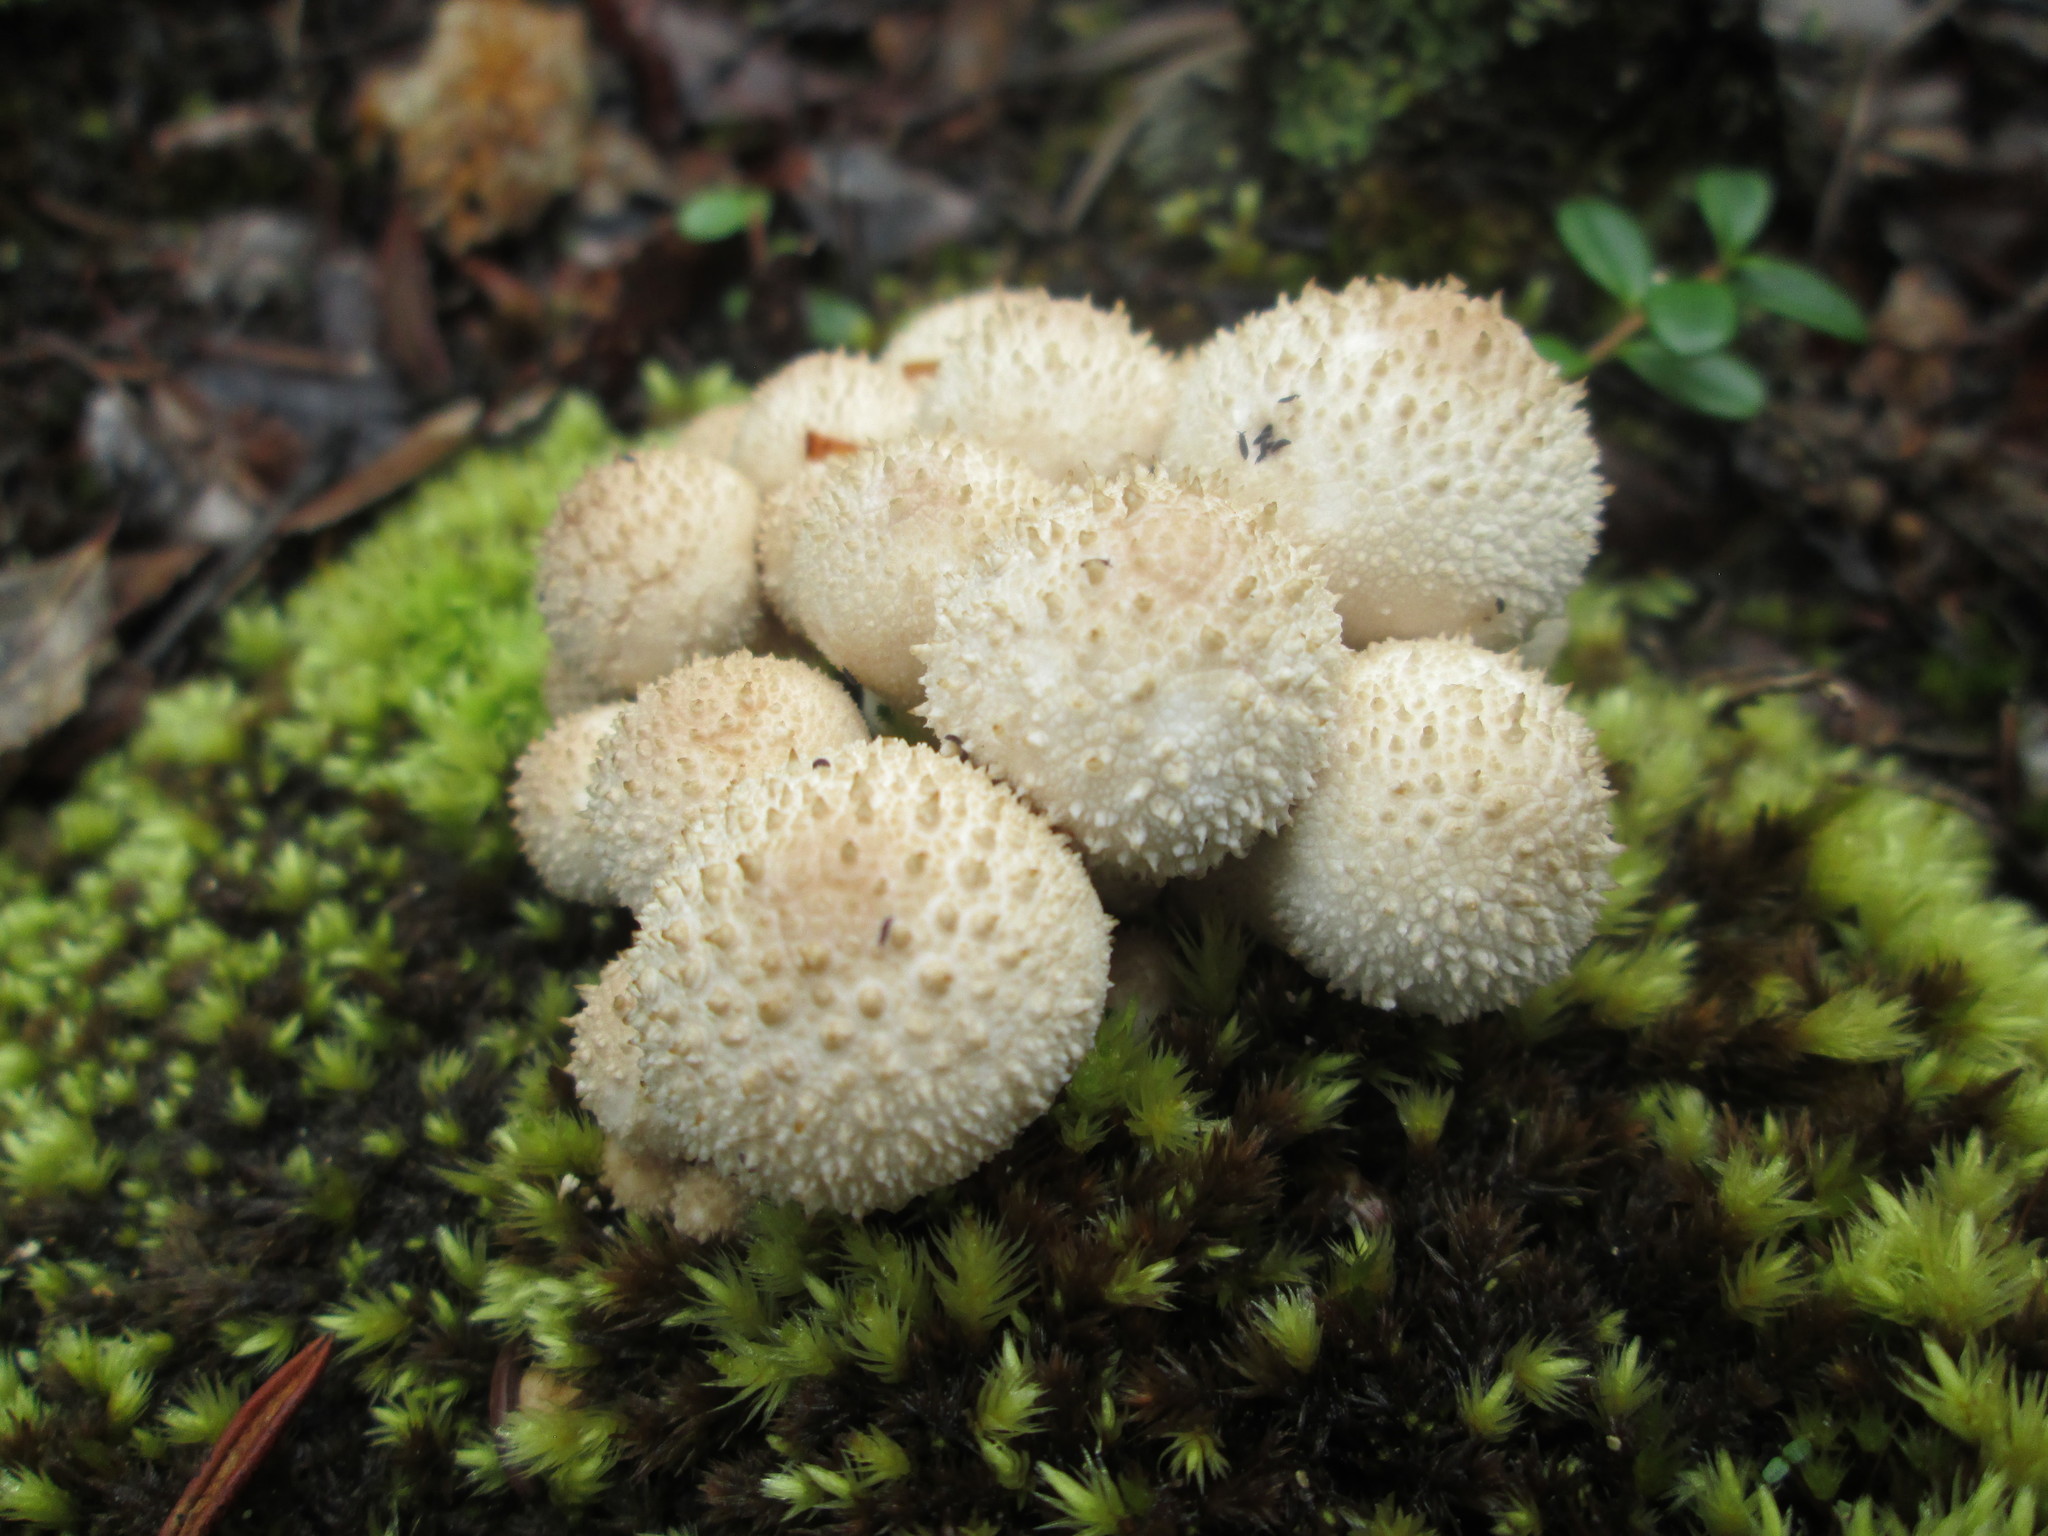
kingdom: Fungi
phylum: Basidiomycota
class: Agaricomycetes
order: Agaricales
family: Lycoperdaceae
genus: Lycoperdon
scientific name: Lycoperdon perlatum
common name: Common puffball
